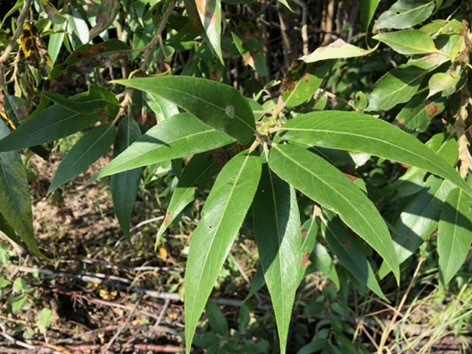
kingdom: Plantae
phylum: Tracheophyta
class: Magnoliopsida
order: Malpighiales
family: Salicaceae
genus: Salix
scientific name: Salix lucida
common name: Shining willow
